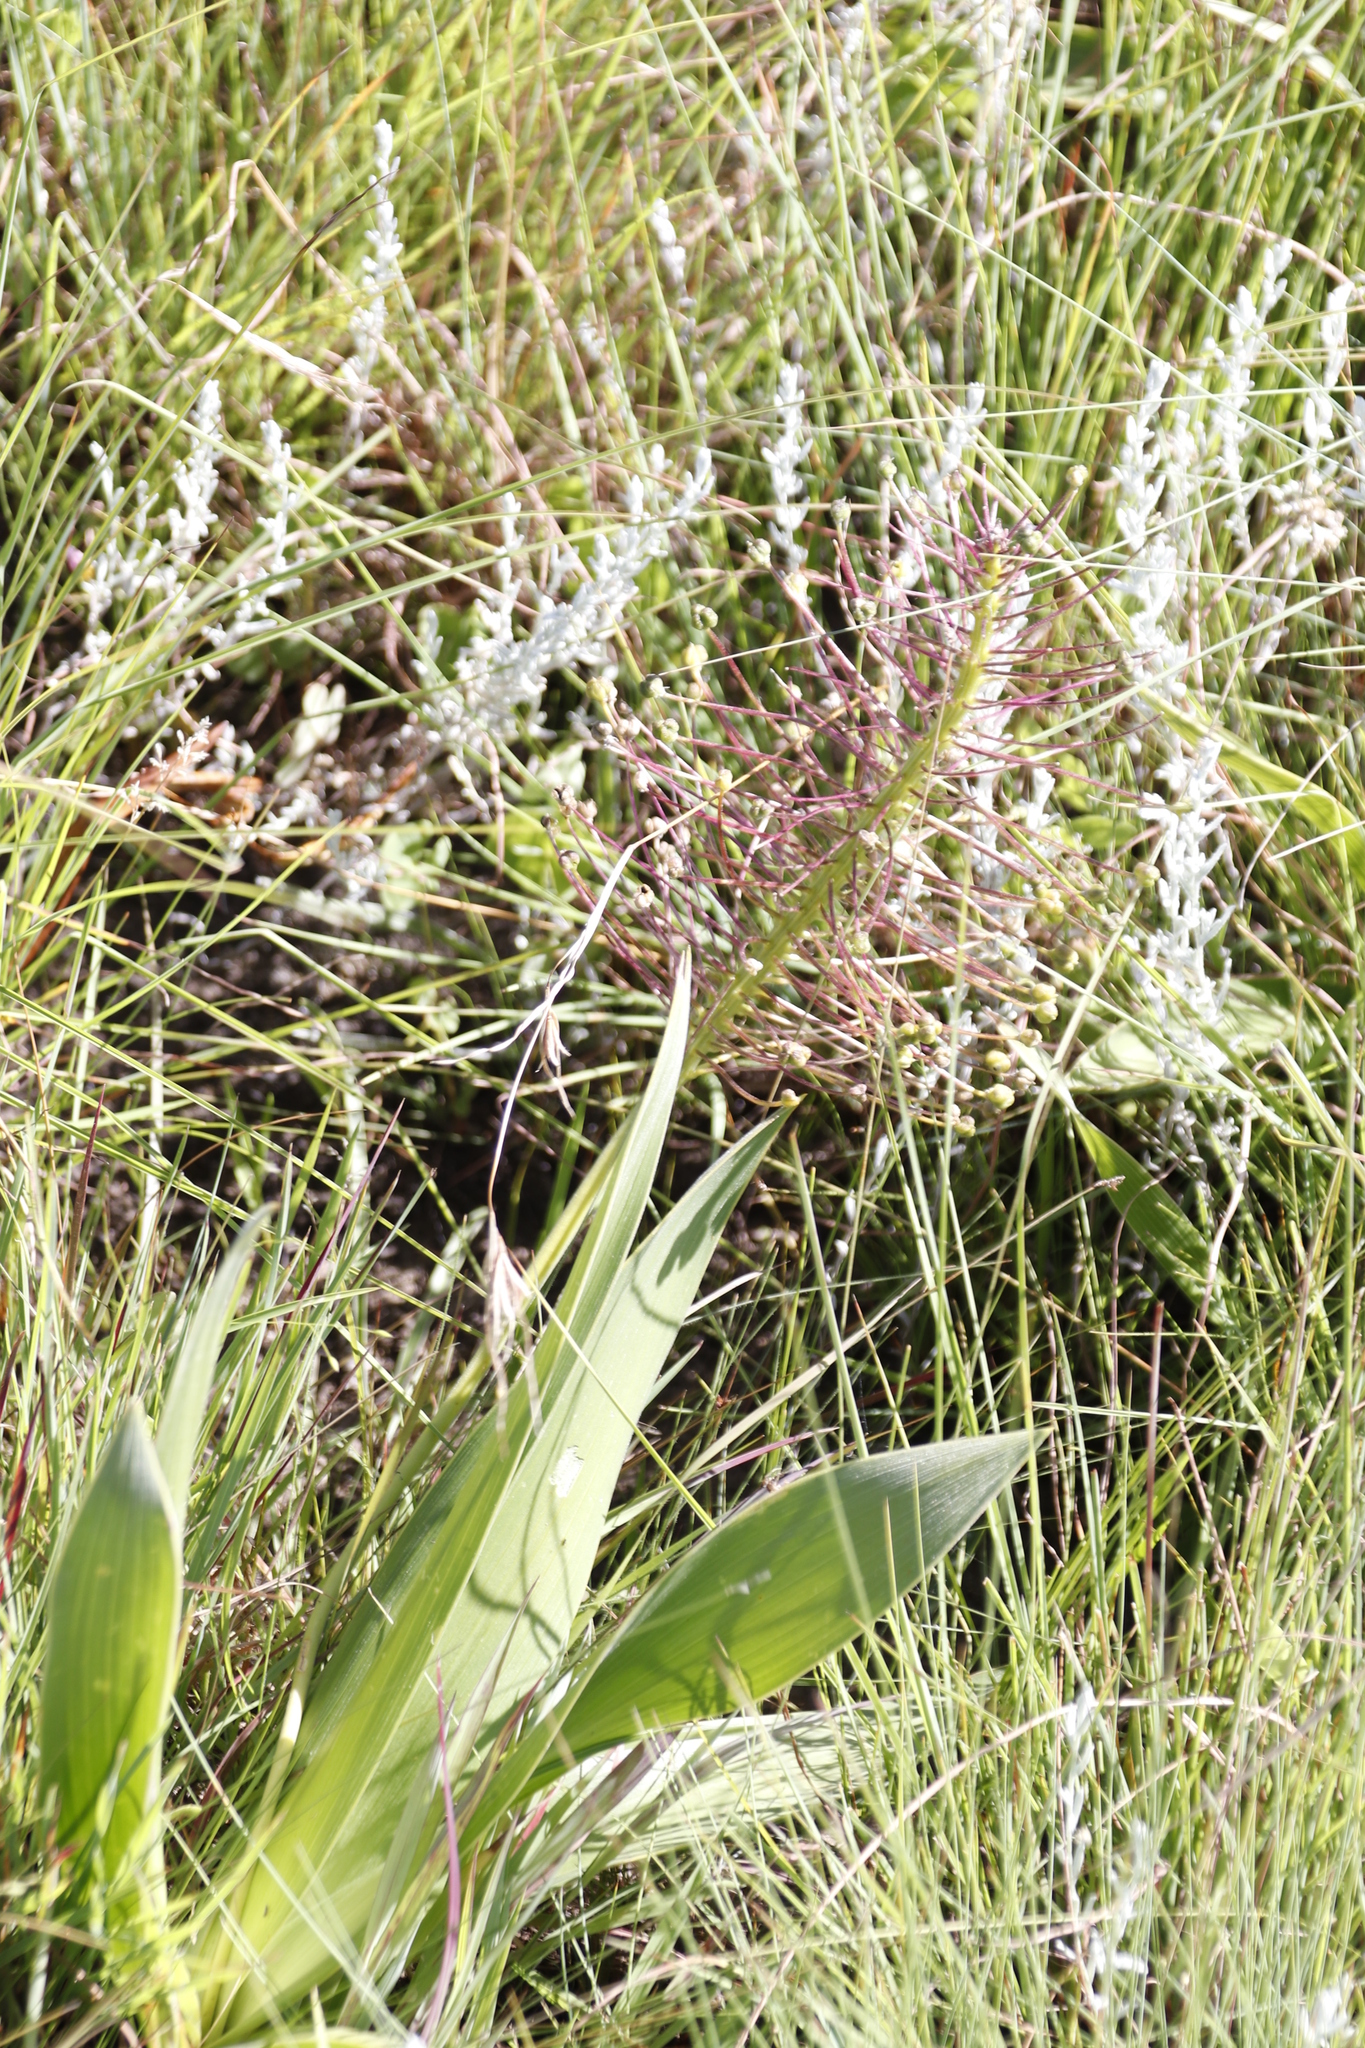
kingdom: Plantae
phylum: Tracheophyta
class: Liliopsida
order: Asparagales
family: Asparagaceae
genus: Schizocarphus
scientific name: Schizocarphus nervosus
